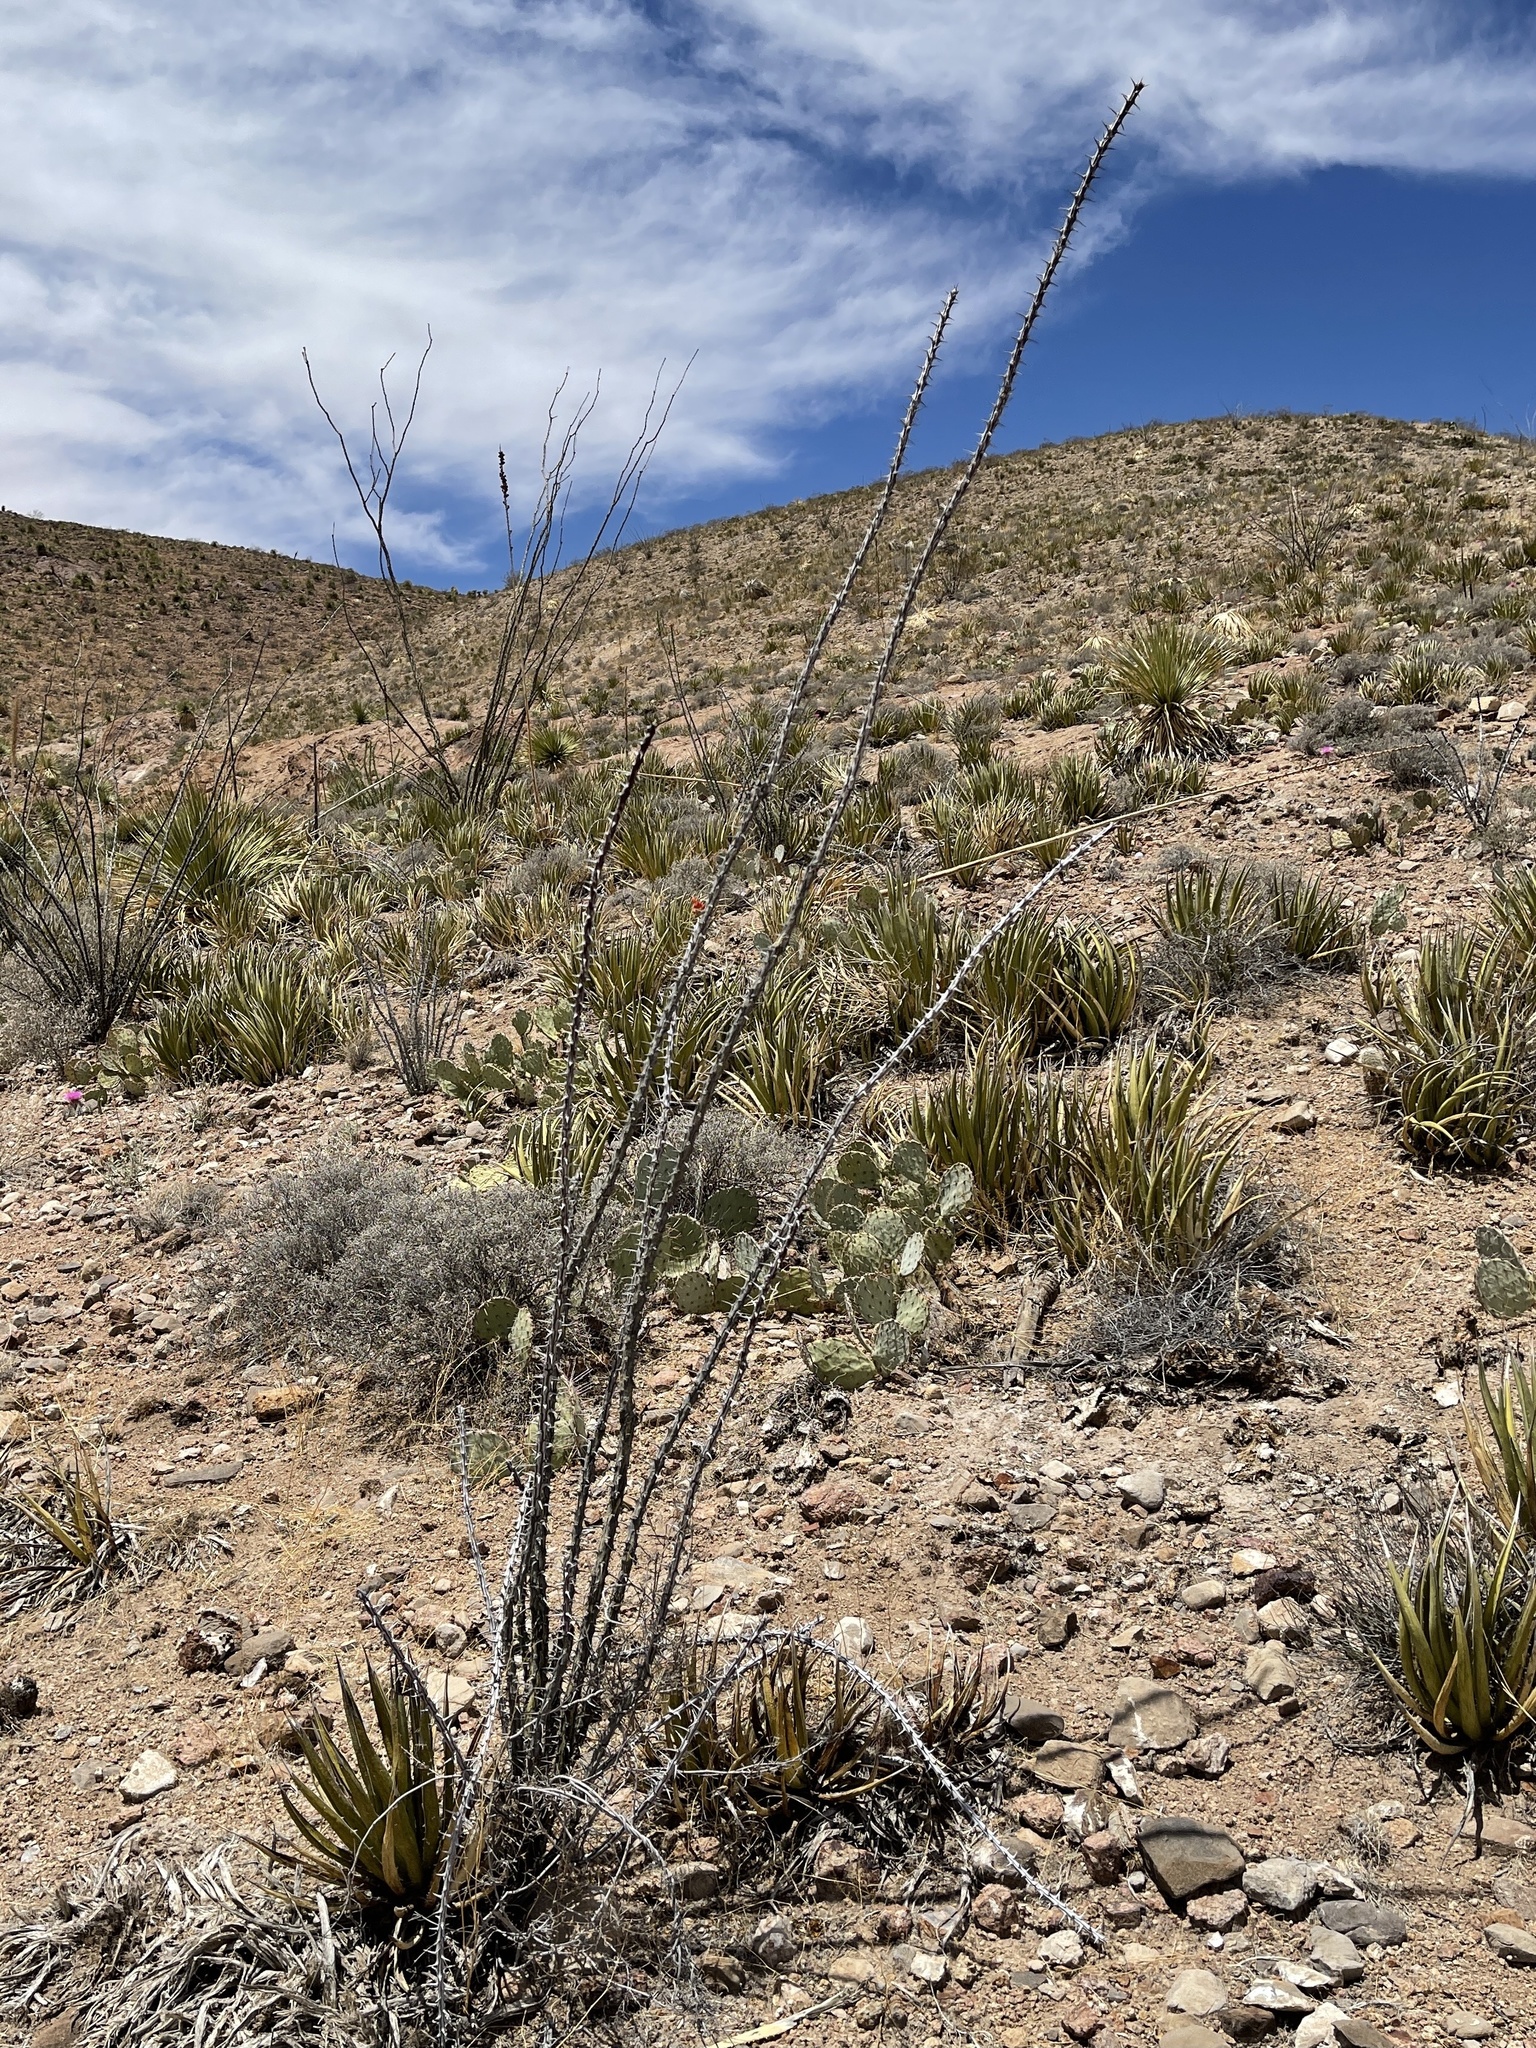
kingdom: Plantae
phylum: Tracheophyta
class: Liliopsida
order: Asparagales
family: Asparagaceae
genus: Agave
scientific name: Agave lechuguilla
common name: Lecheguilla agave
